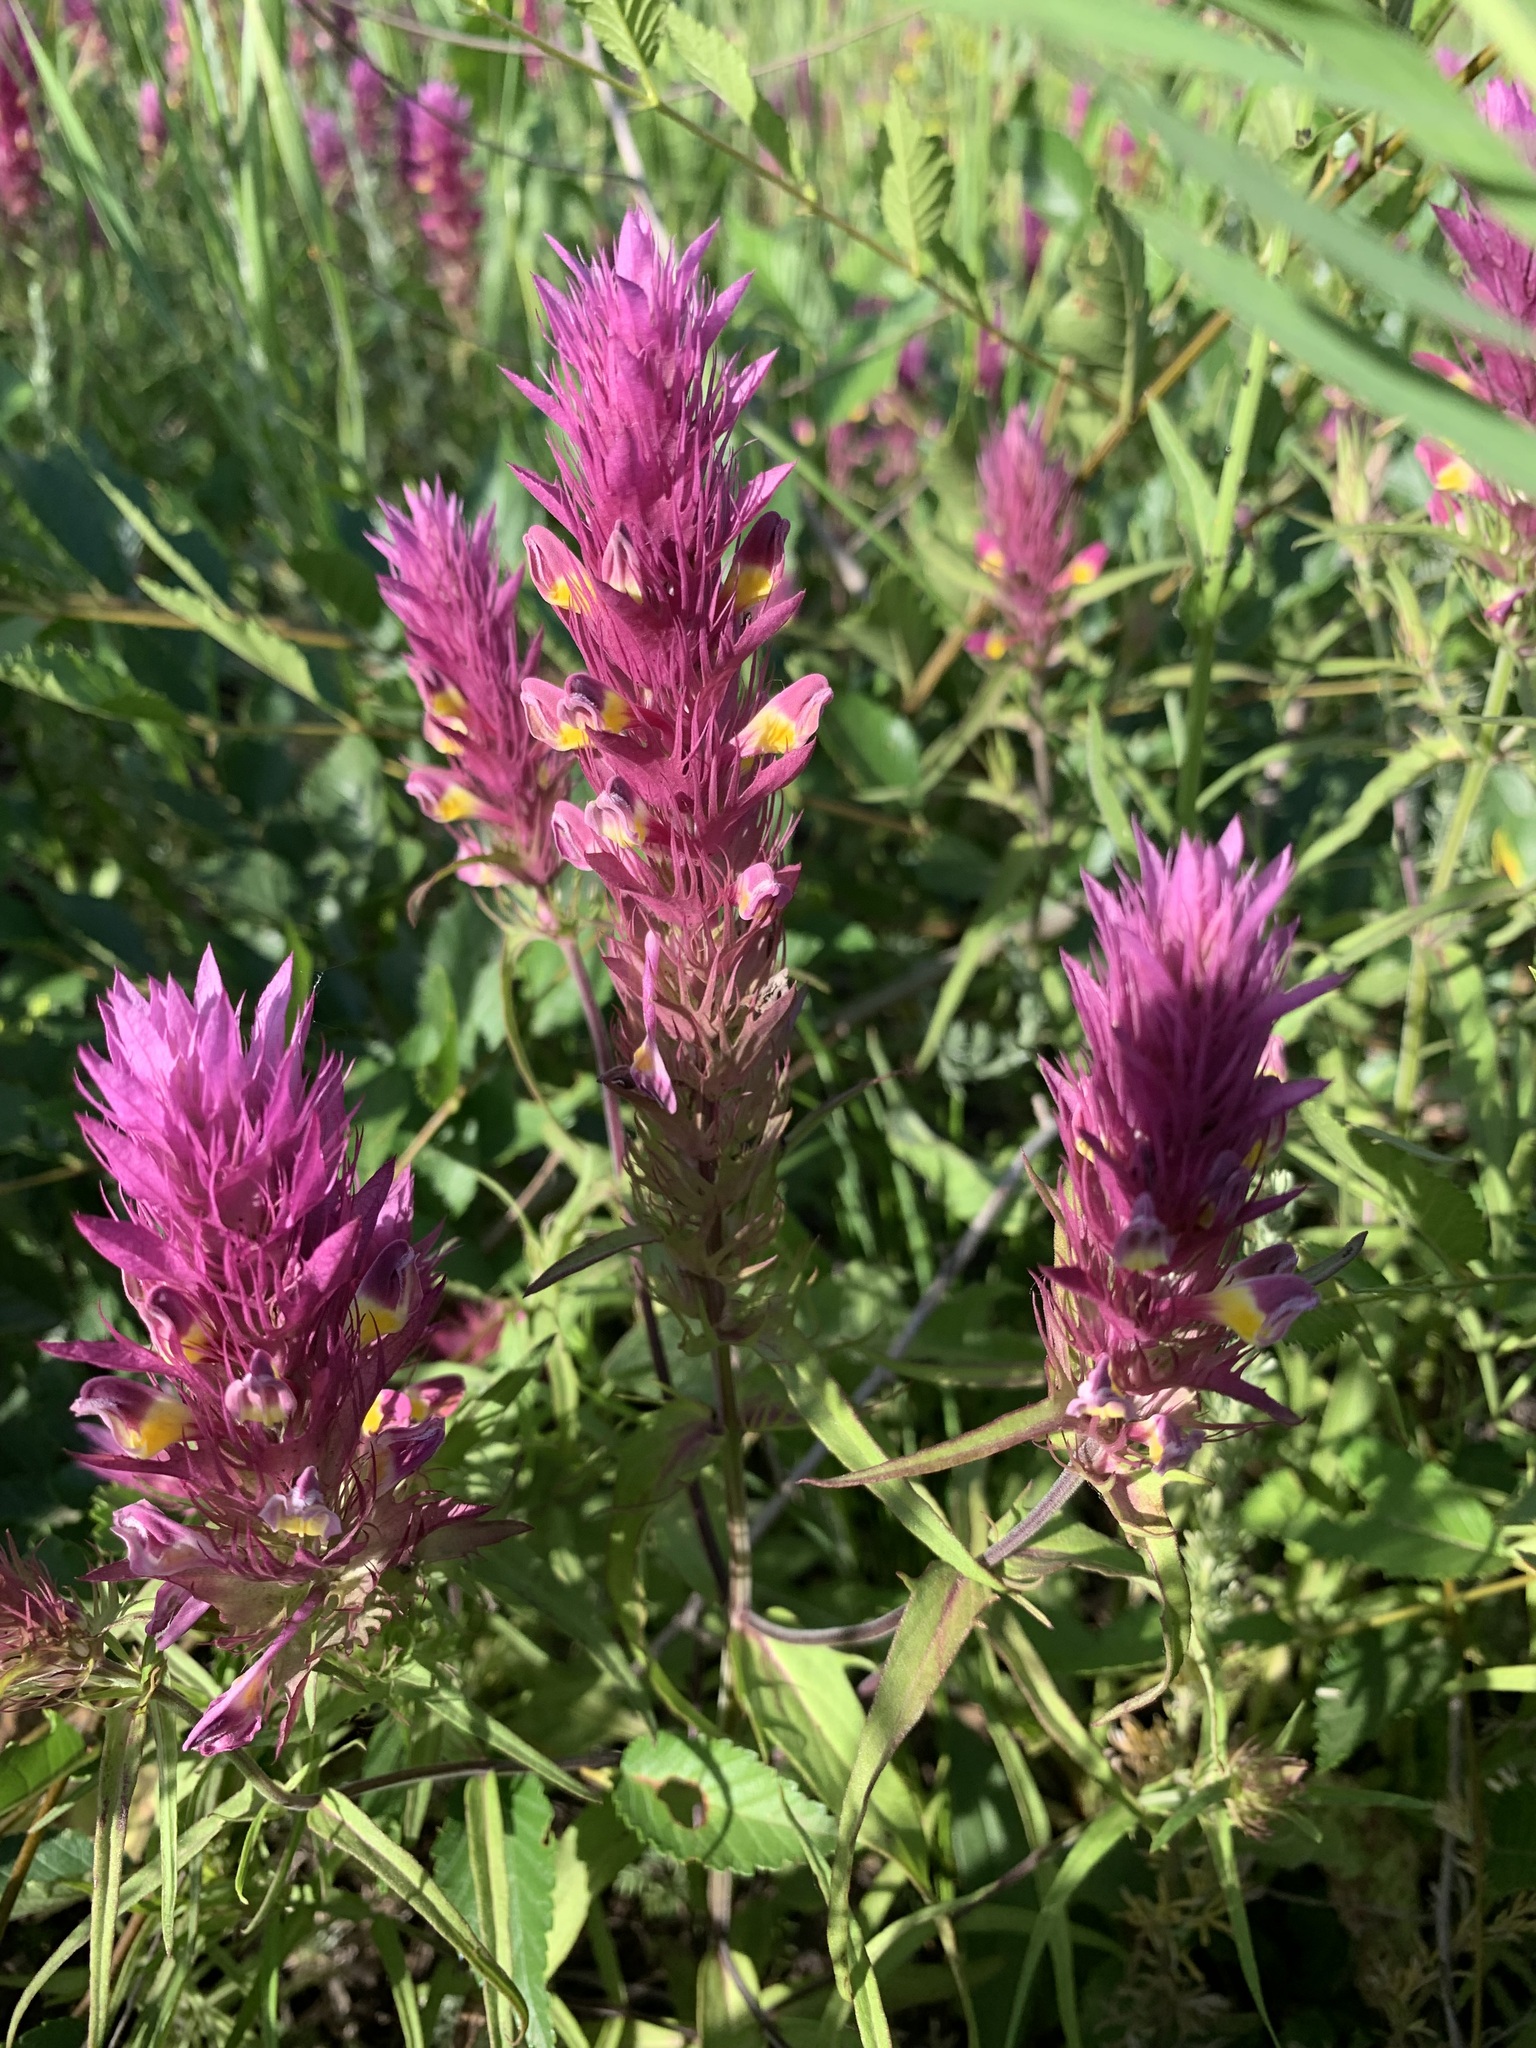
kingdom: Plantae
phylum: Tracheophyta
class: Magnoliopsida
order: Lamiales
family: Orobanchaceae
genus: Melampyrum
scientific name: Melampyrum arvense
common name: Field cow-wheat
